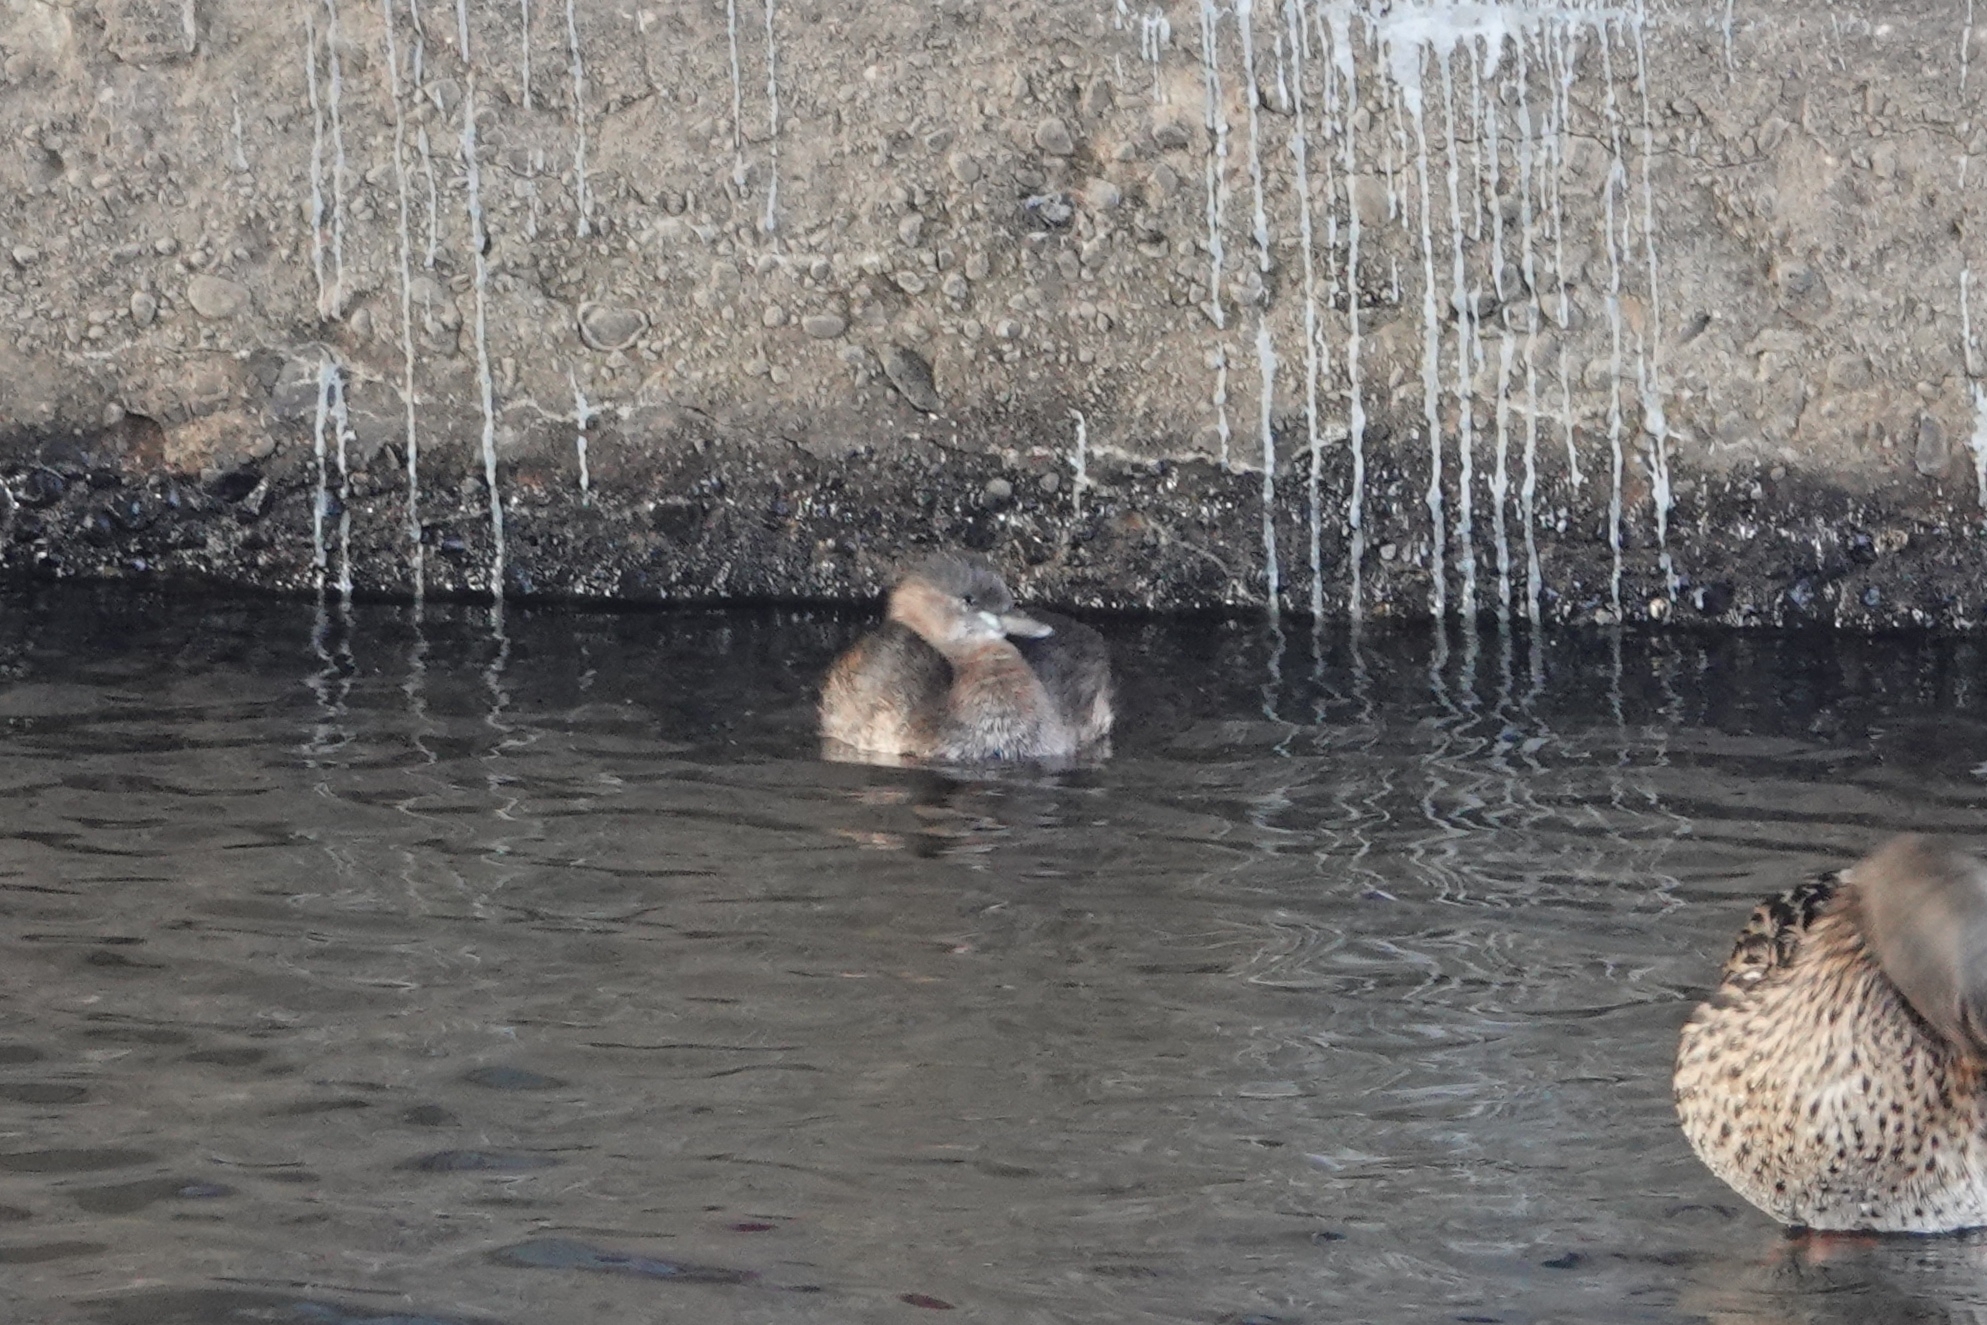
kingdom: Animalia
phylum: Chordata
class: Aves
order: Podicipediformes
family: Podicipedidae
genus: Tachybaptus
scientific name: Tachybaptus ruficollis
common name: Little grebe
